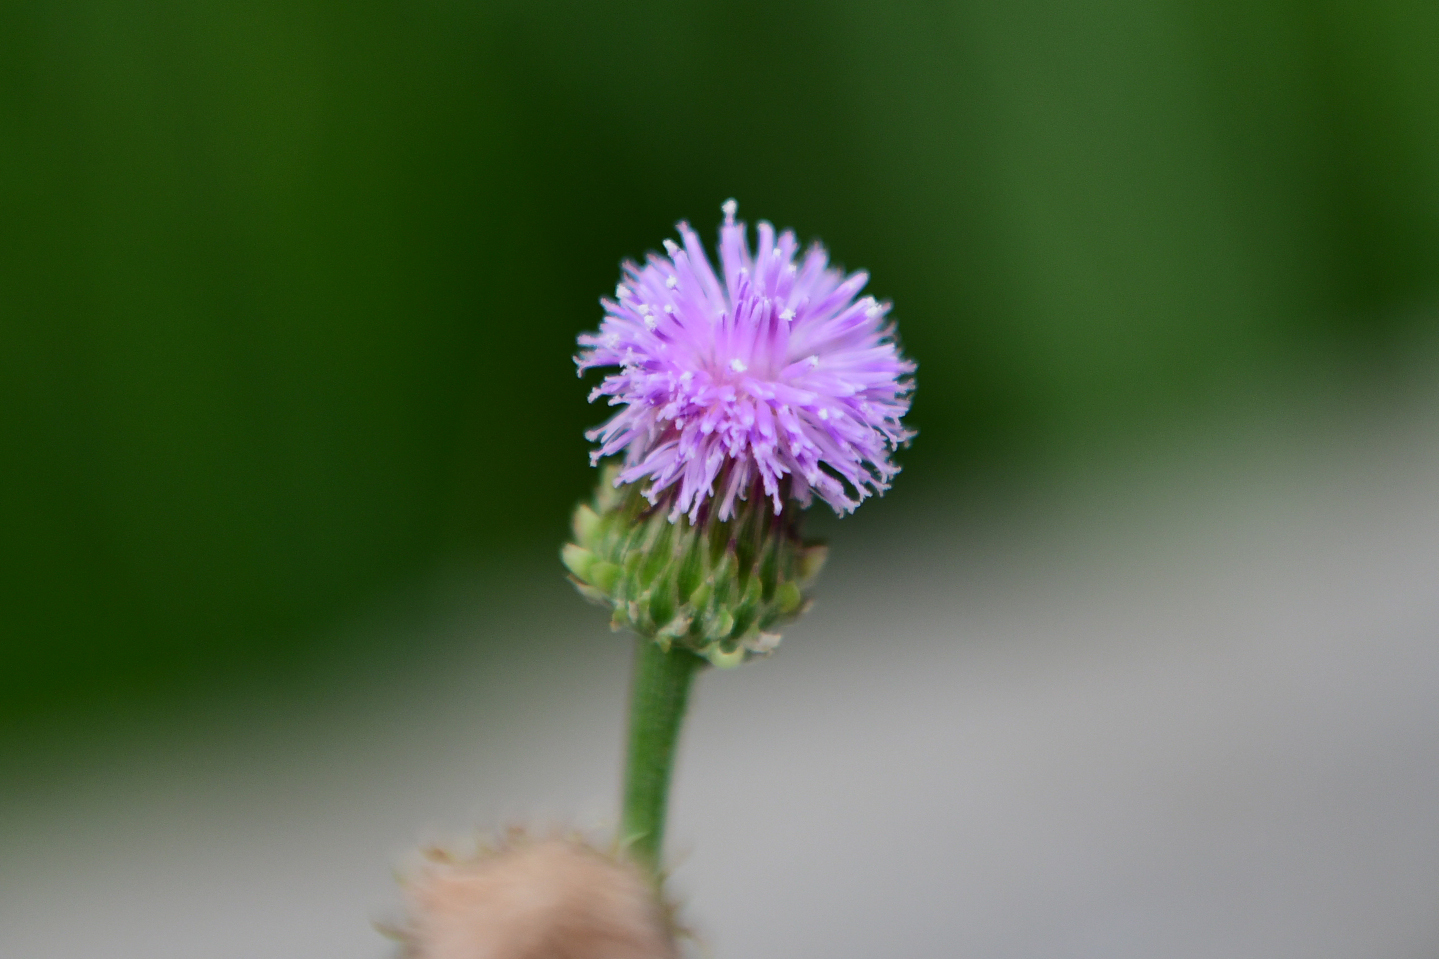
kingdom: Plantae
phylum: Tracheophyta
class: Magnoliopsida
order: Asterales
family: Asteraceae
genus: Saussurea
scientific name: Saussurea lyrata
